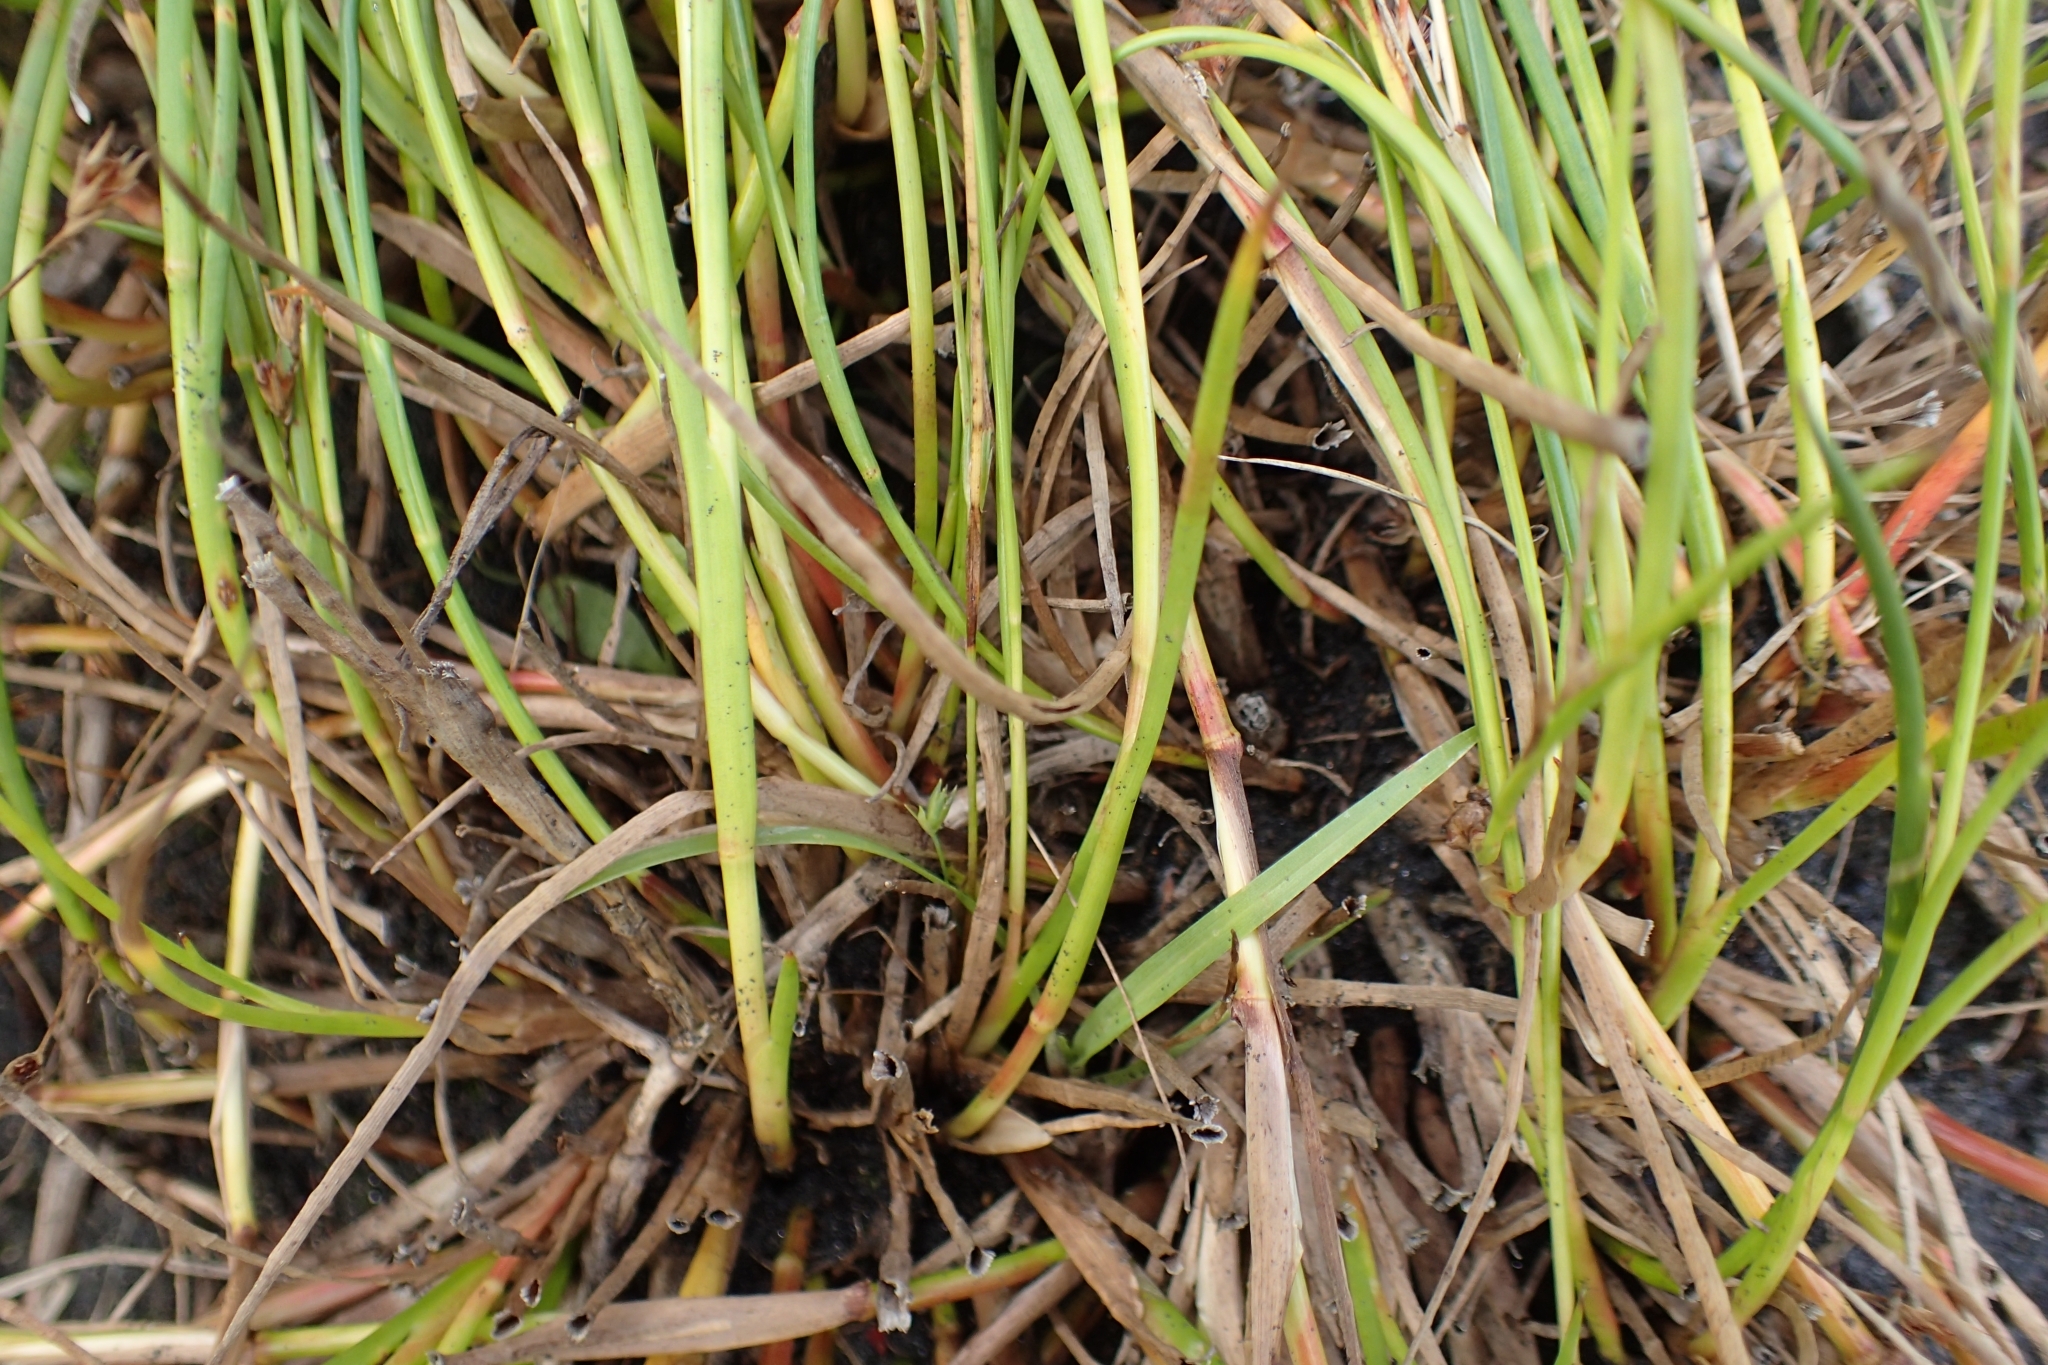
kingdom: Plantae
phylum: Tracheophyta
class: Liliopsida
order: Poales
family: Juncaceae
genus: Juncus
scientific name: Juncus articulatus
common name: Jointed rush
